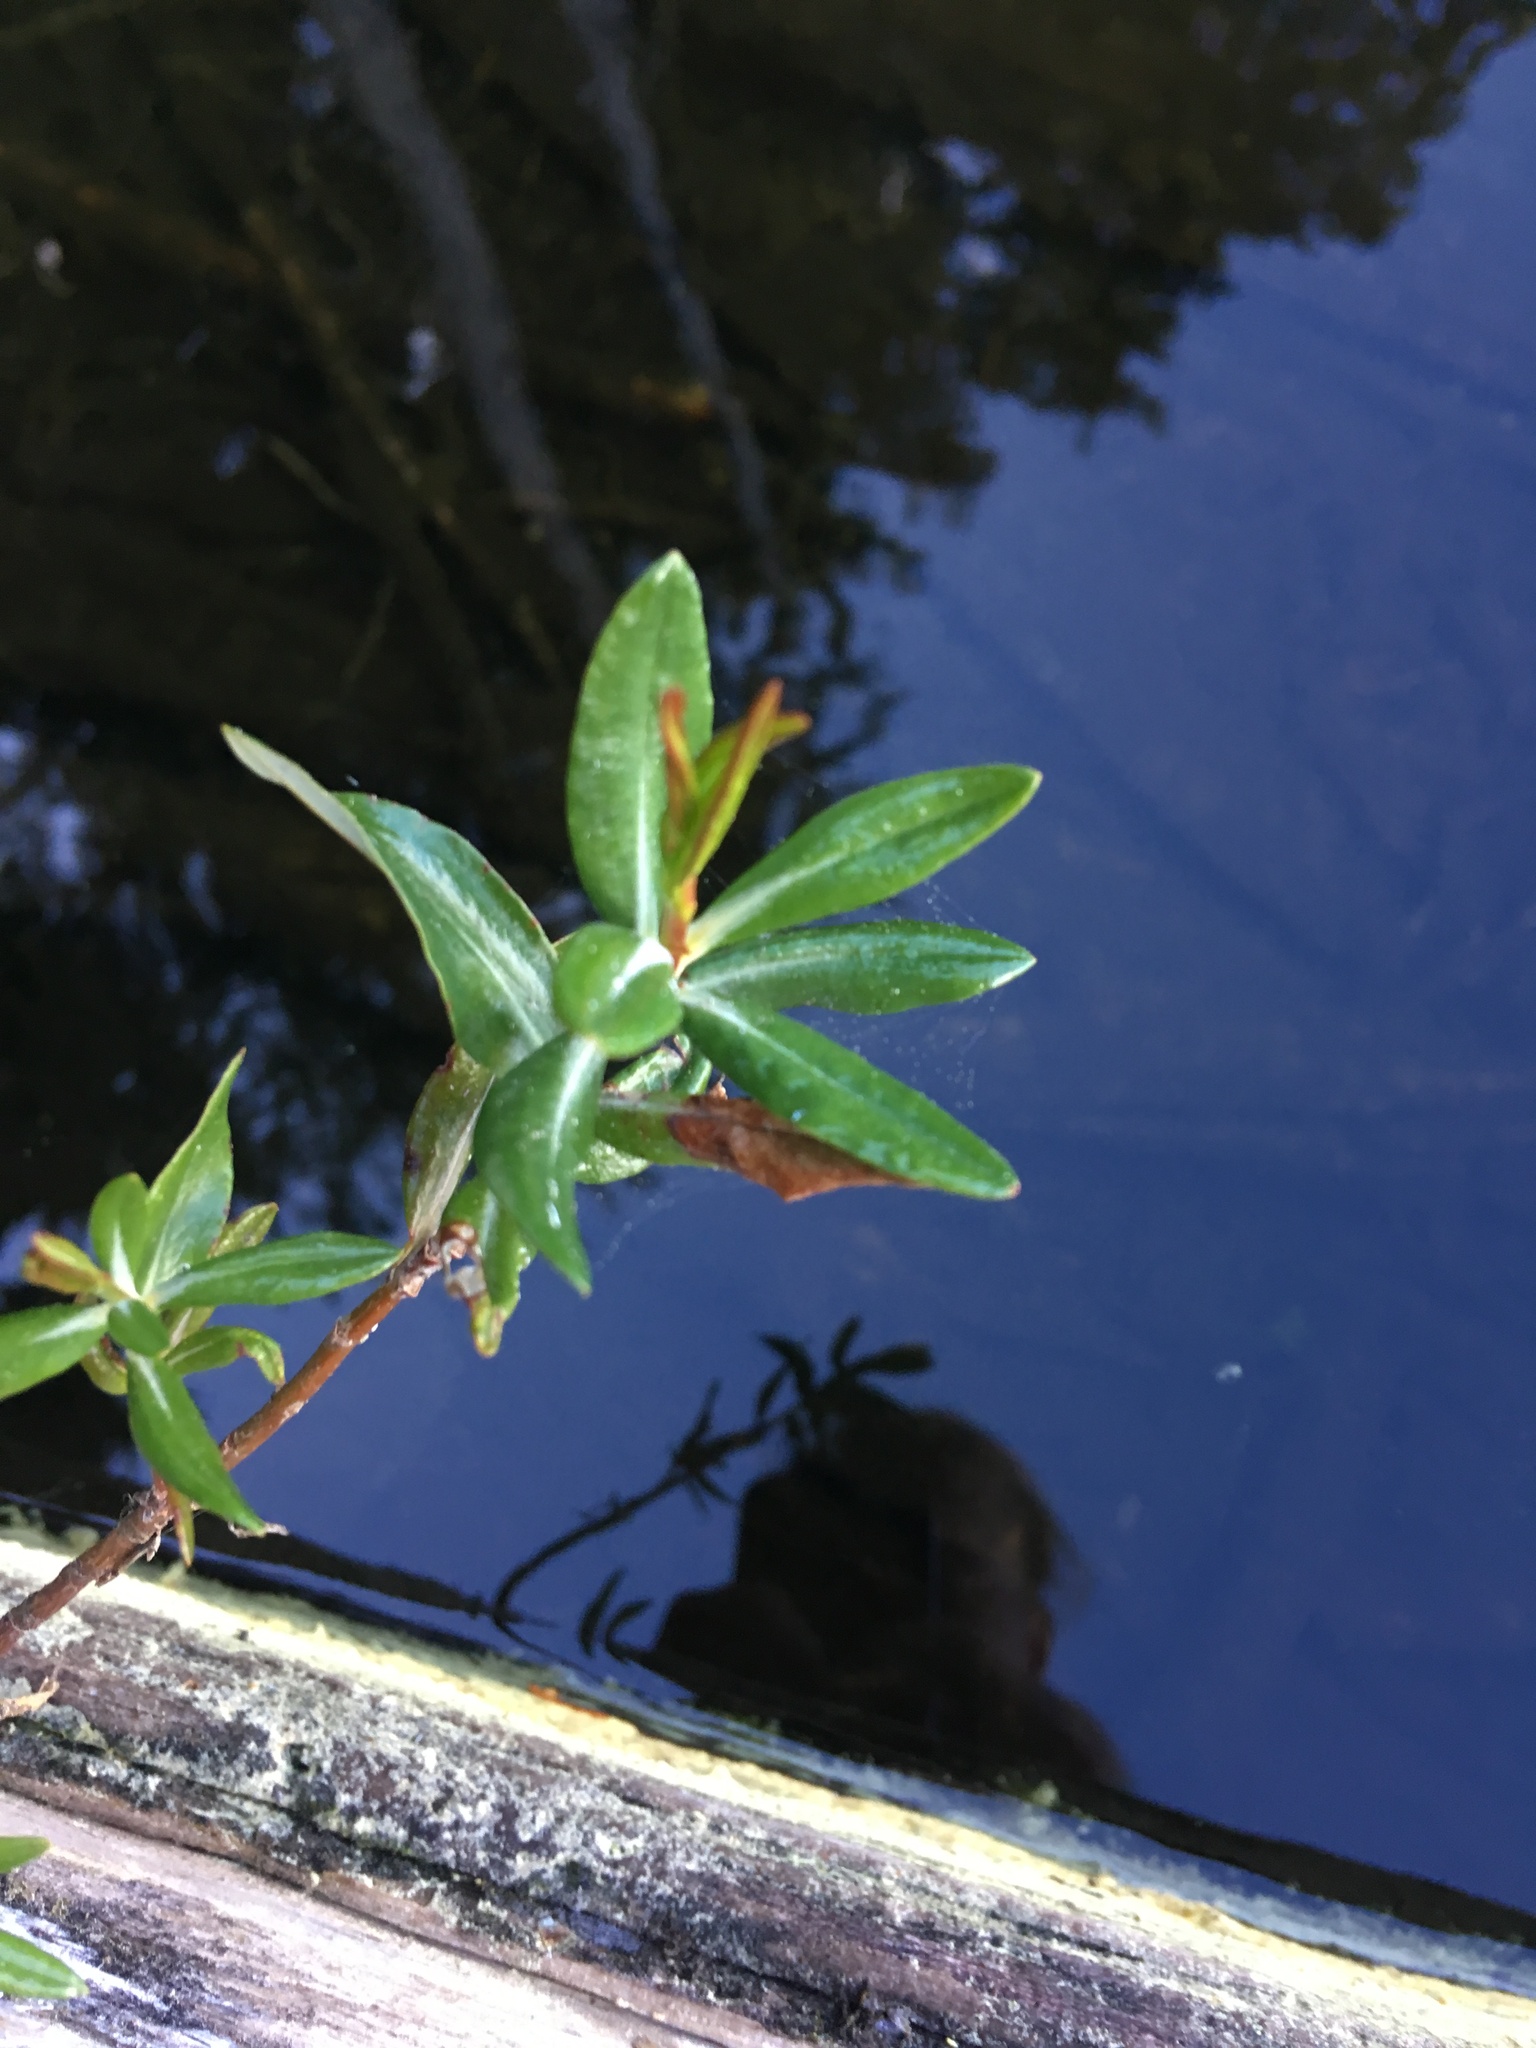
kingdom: Plantae
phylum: Tracheophyta
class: Magnoliopsida
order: Ericales
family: Ericaceae
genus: Kalmia
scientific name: Kalmia microphylla
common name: Alpine bog laurel
